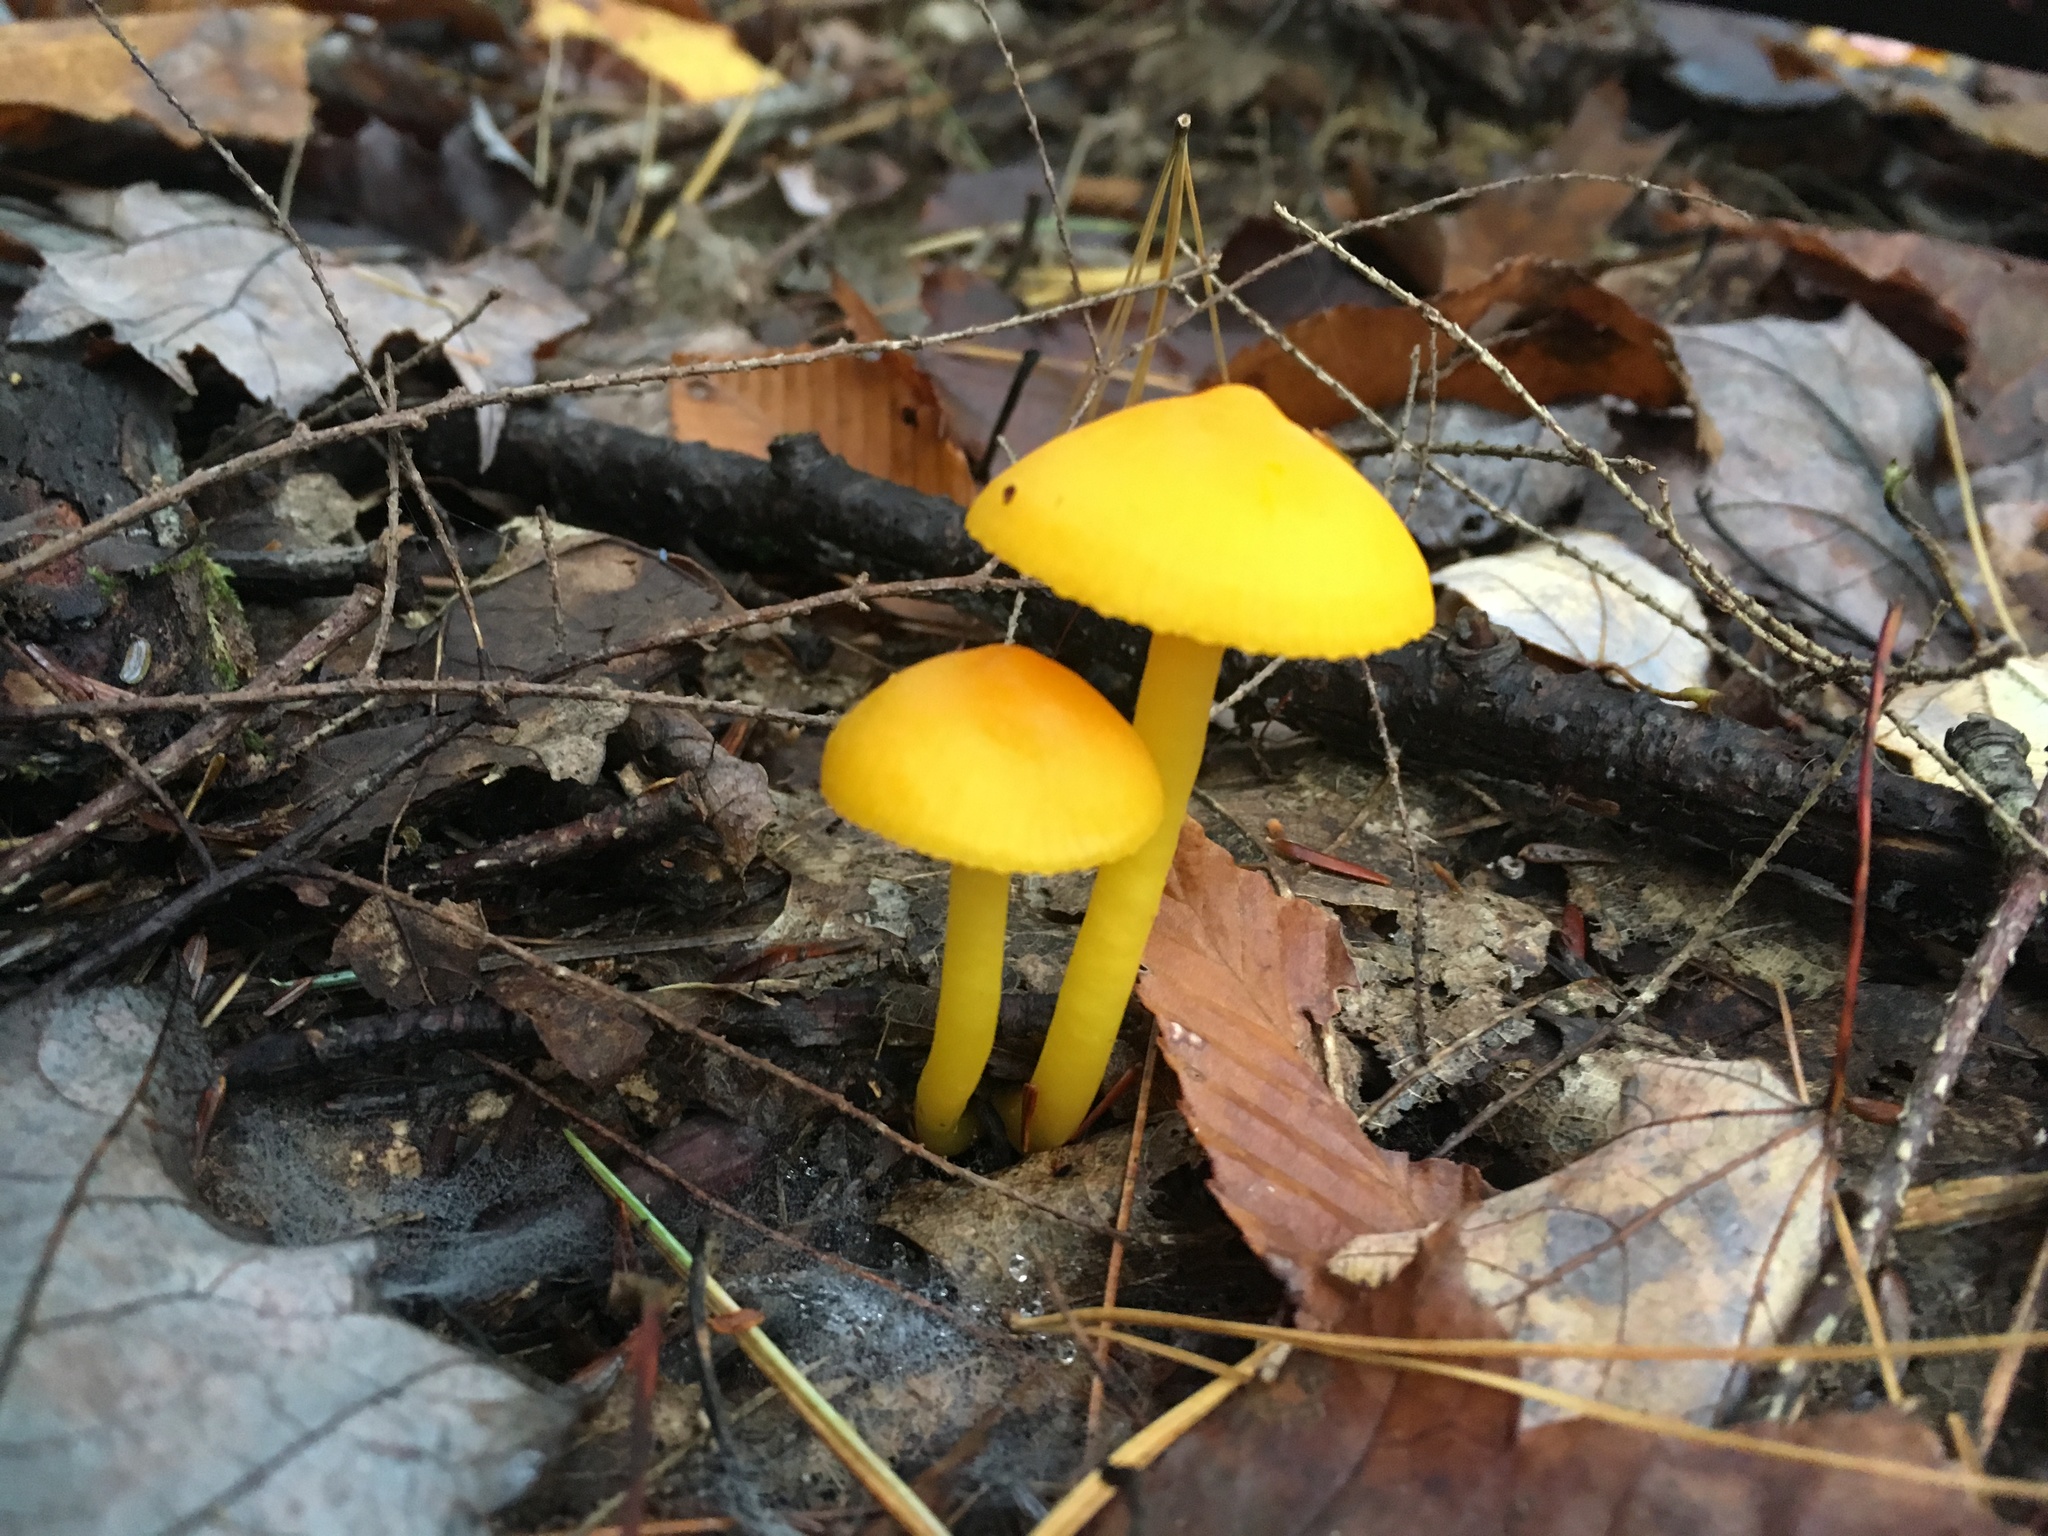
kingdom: Fungi
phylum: Basidiomycota
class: Agaricomycetes
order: Agaricales
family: Hygrophoraceae
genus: Humidicutis
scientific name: Humidicutis marginata
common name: Orange gilled waxcap
